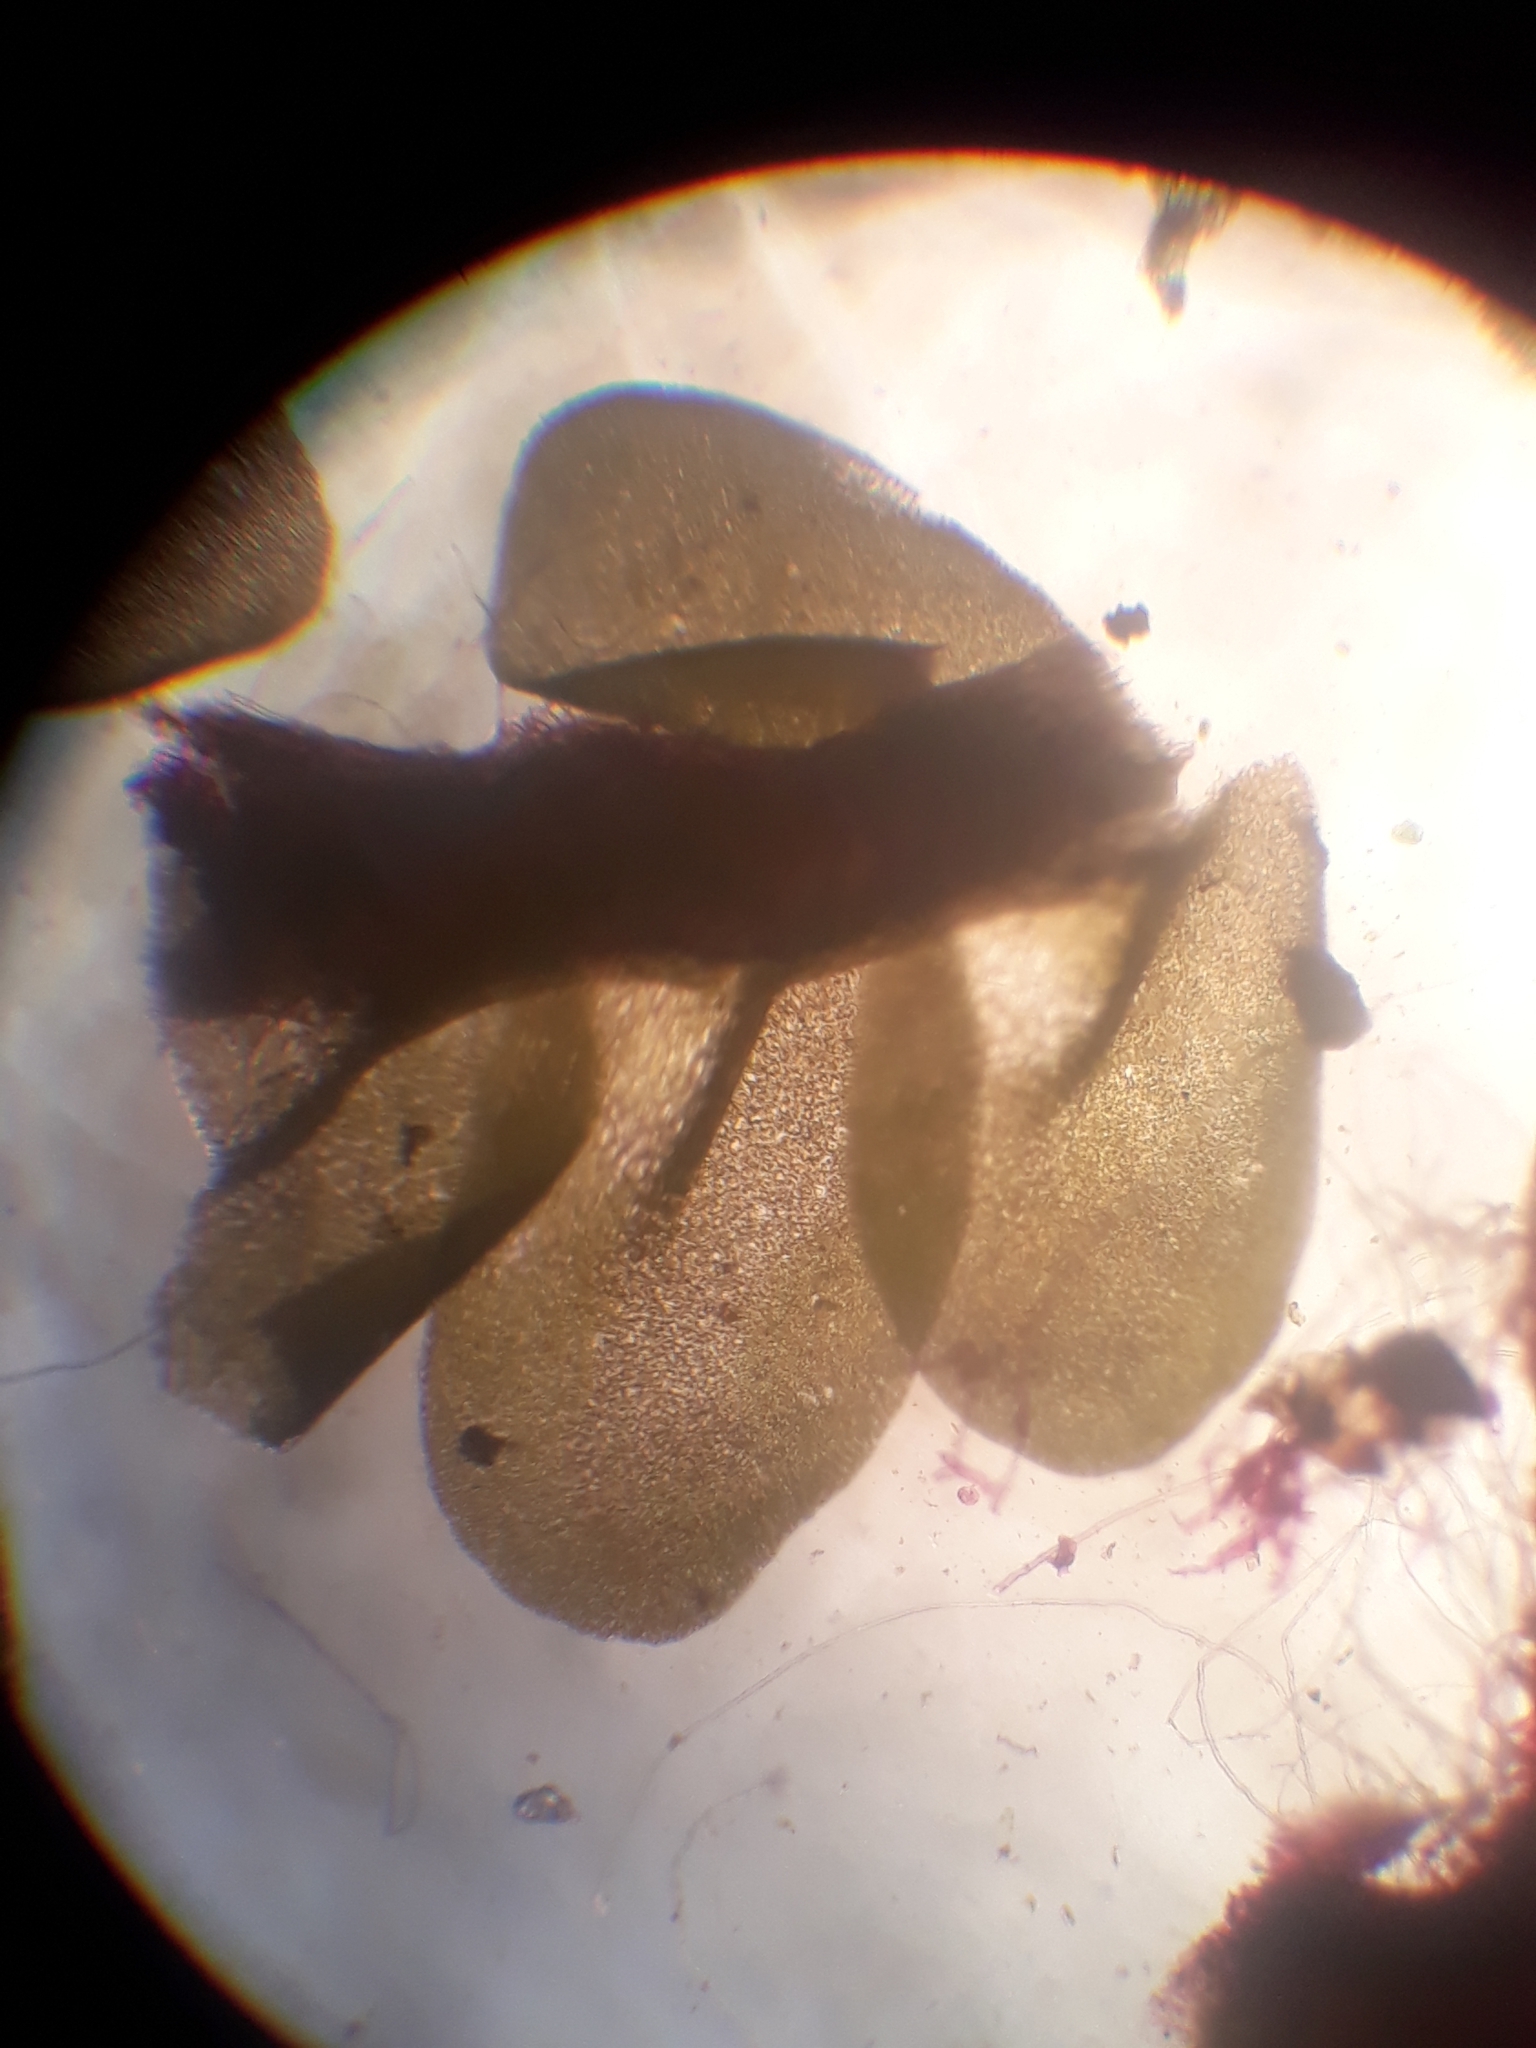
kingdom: Plantae
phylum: Marchantiophyta
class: Jungermanniopsida
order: Jungermanniales
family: Acrobolbaceae
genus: Lethocolea
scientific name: Lethocolea pansa
